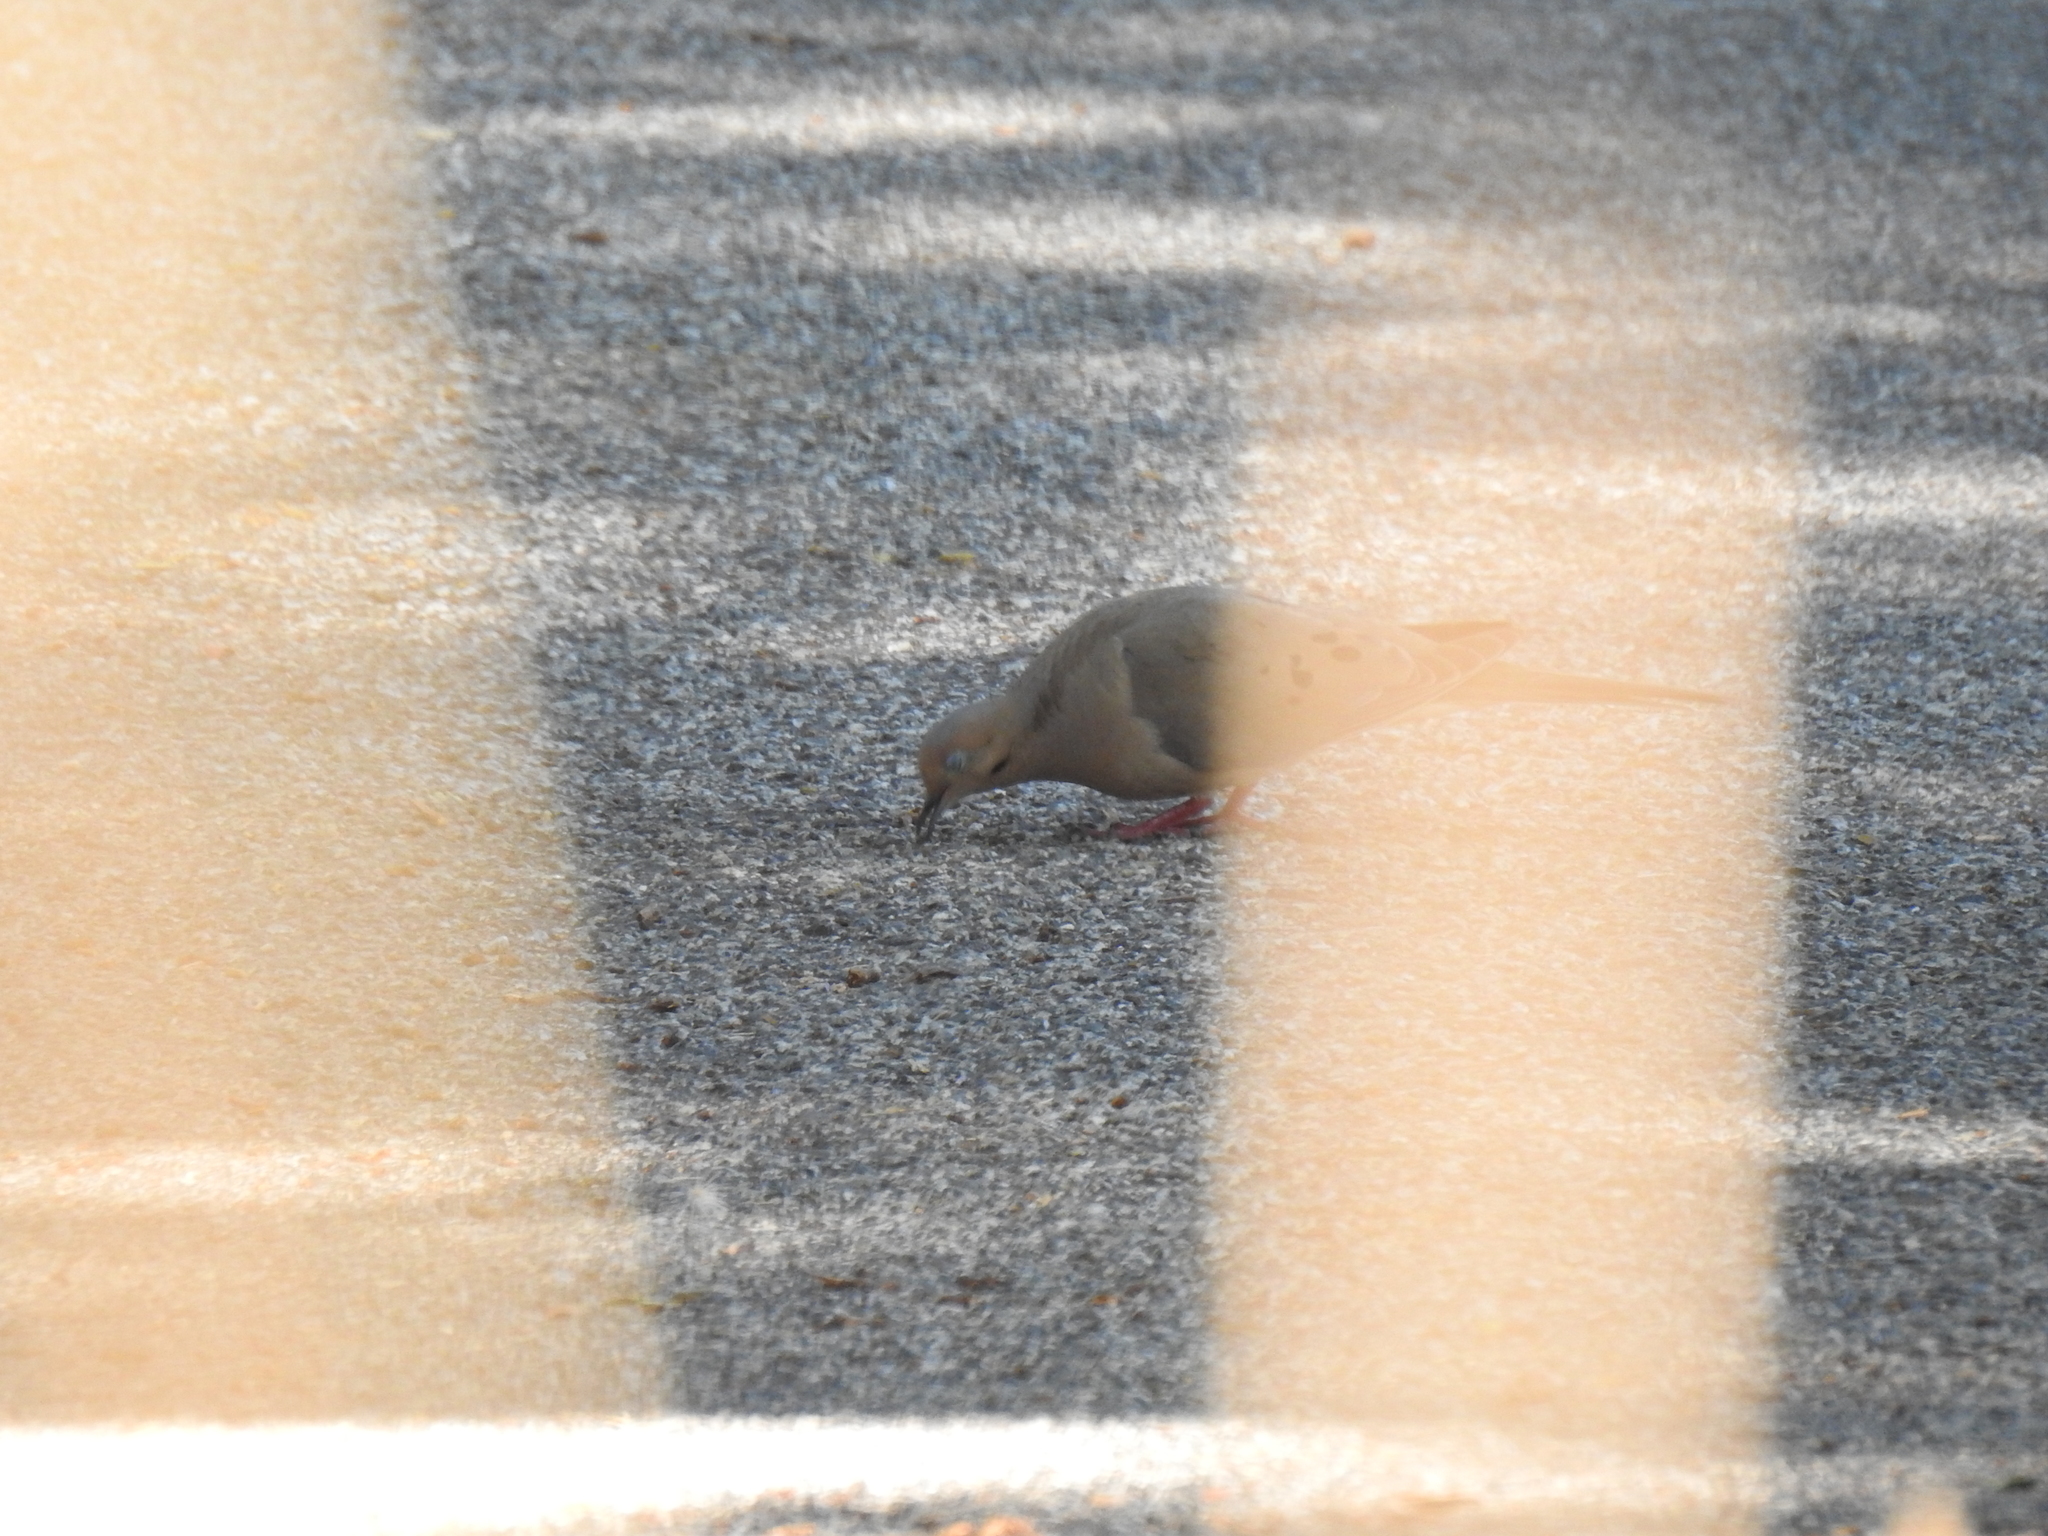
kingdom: Animalia
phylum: Chordata
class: Aves
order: Columbiformes
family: Columbidae
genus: Zenaida
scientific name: Zenaida macroura
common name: Mourning dove
